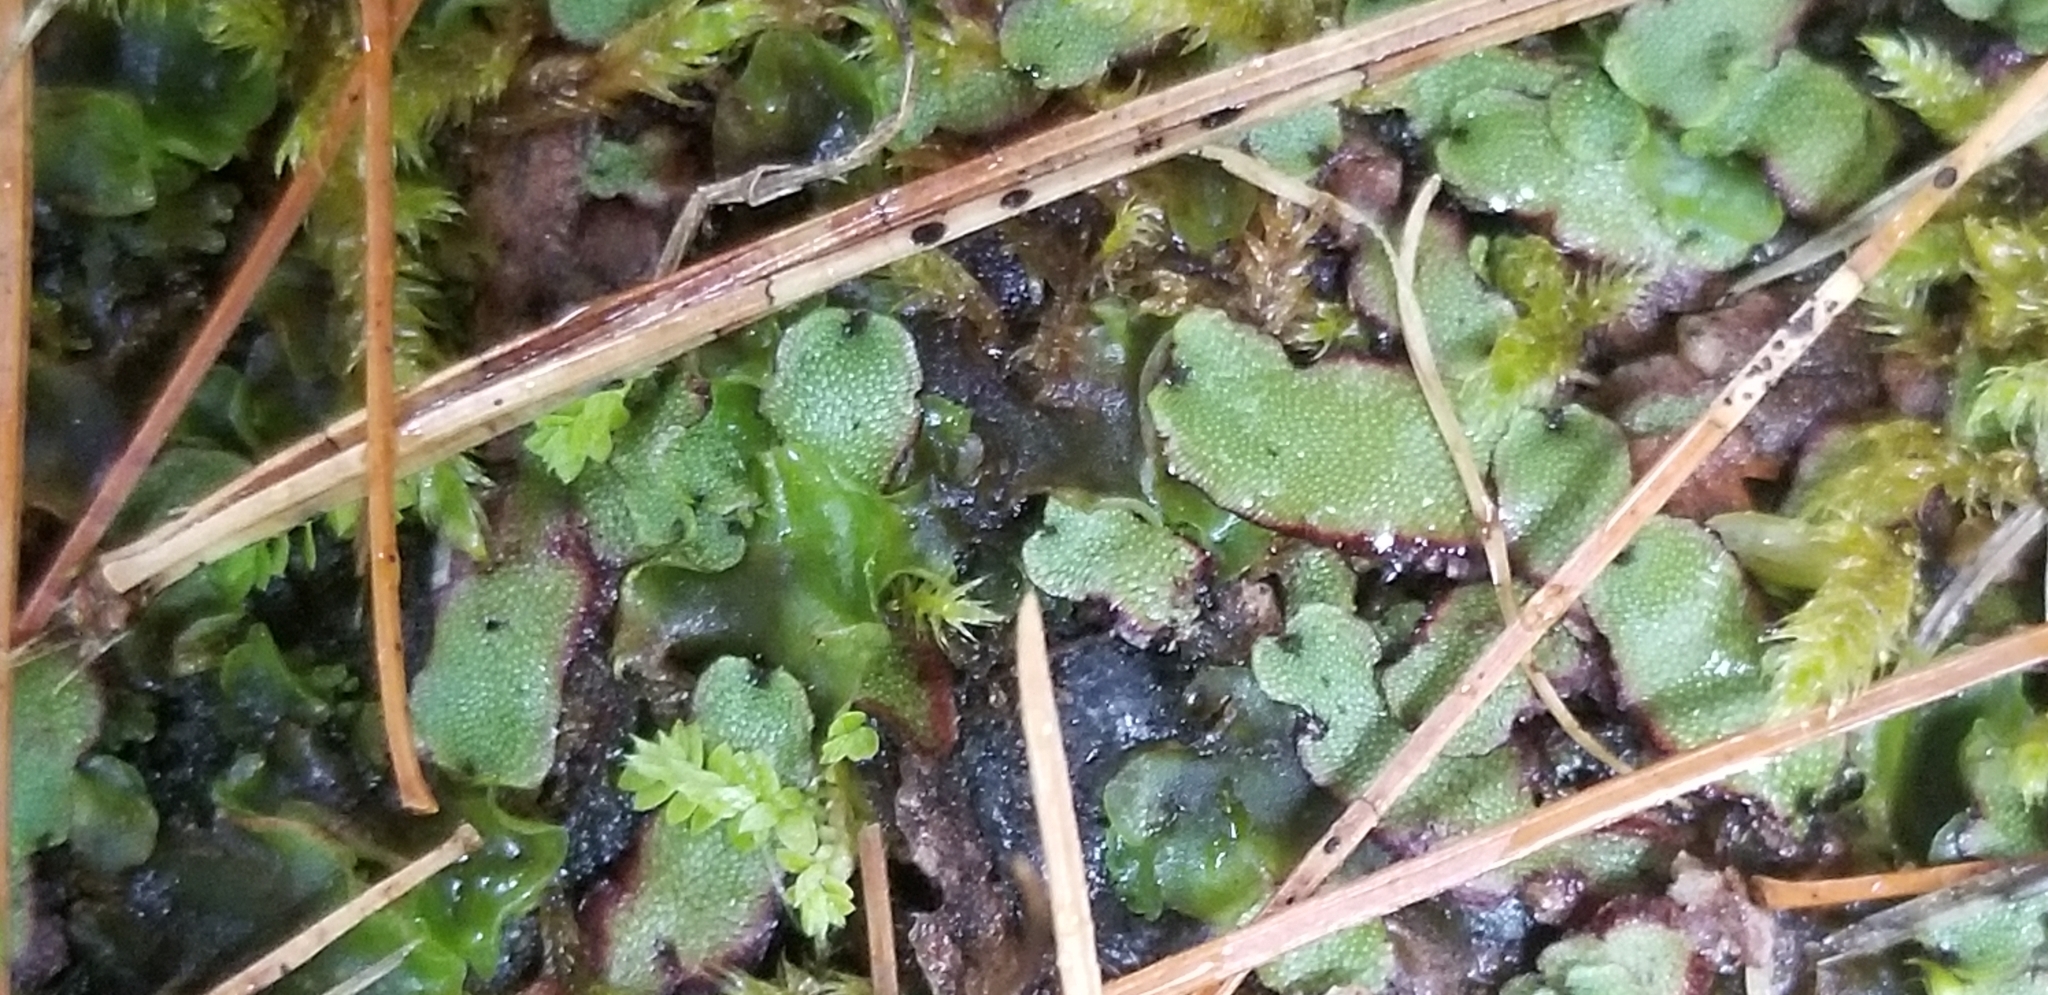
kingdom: Plantae
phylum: Marchantiophyta
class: Marchantiopsida
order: Marchantiales
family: Marchantiaceae
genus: Marchantia
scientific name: Marchantia quadrata
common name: Narrow mushroom-headed liverwort
